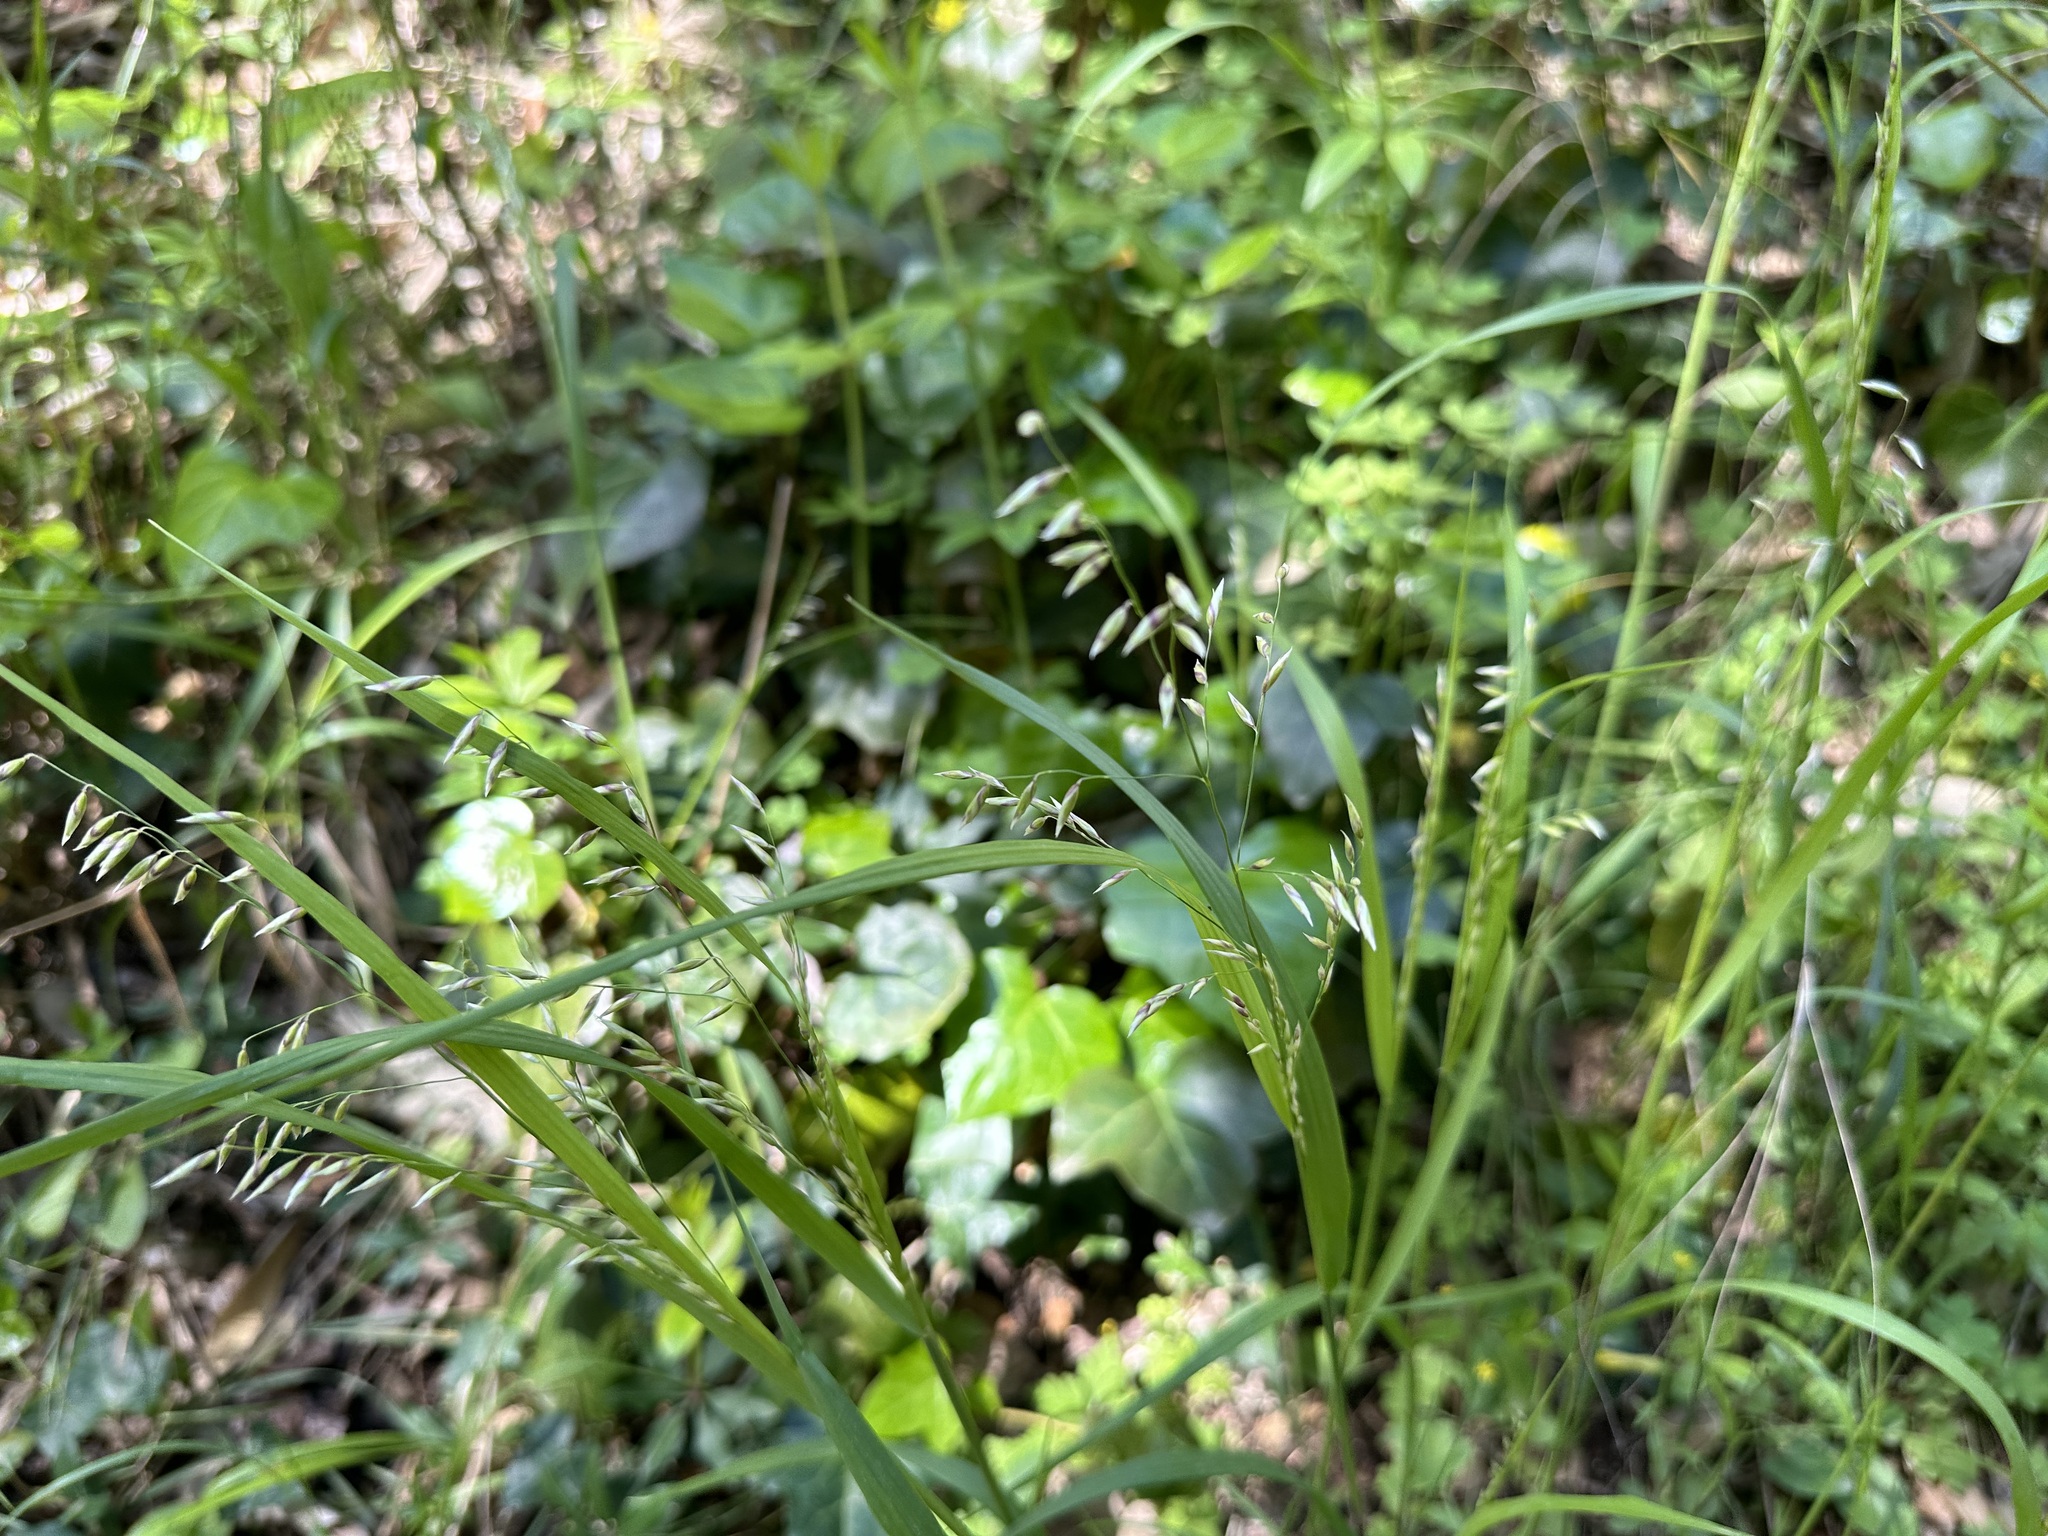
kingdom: Plantae
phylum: Tracheophyta
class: Liliopsida
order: Poales
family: Poaceae
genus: Melica
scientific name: Melica minuta
